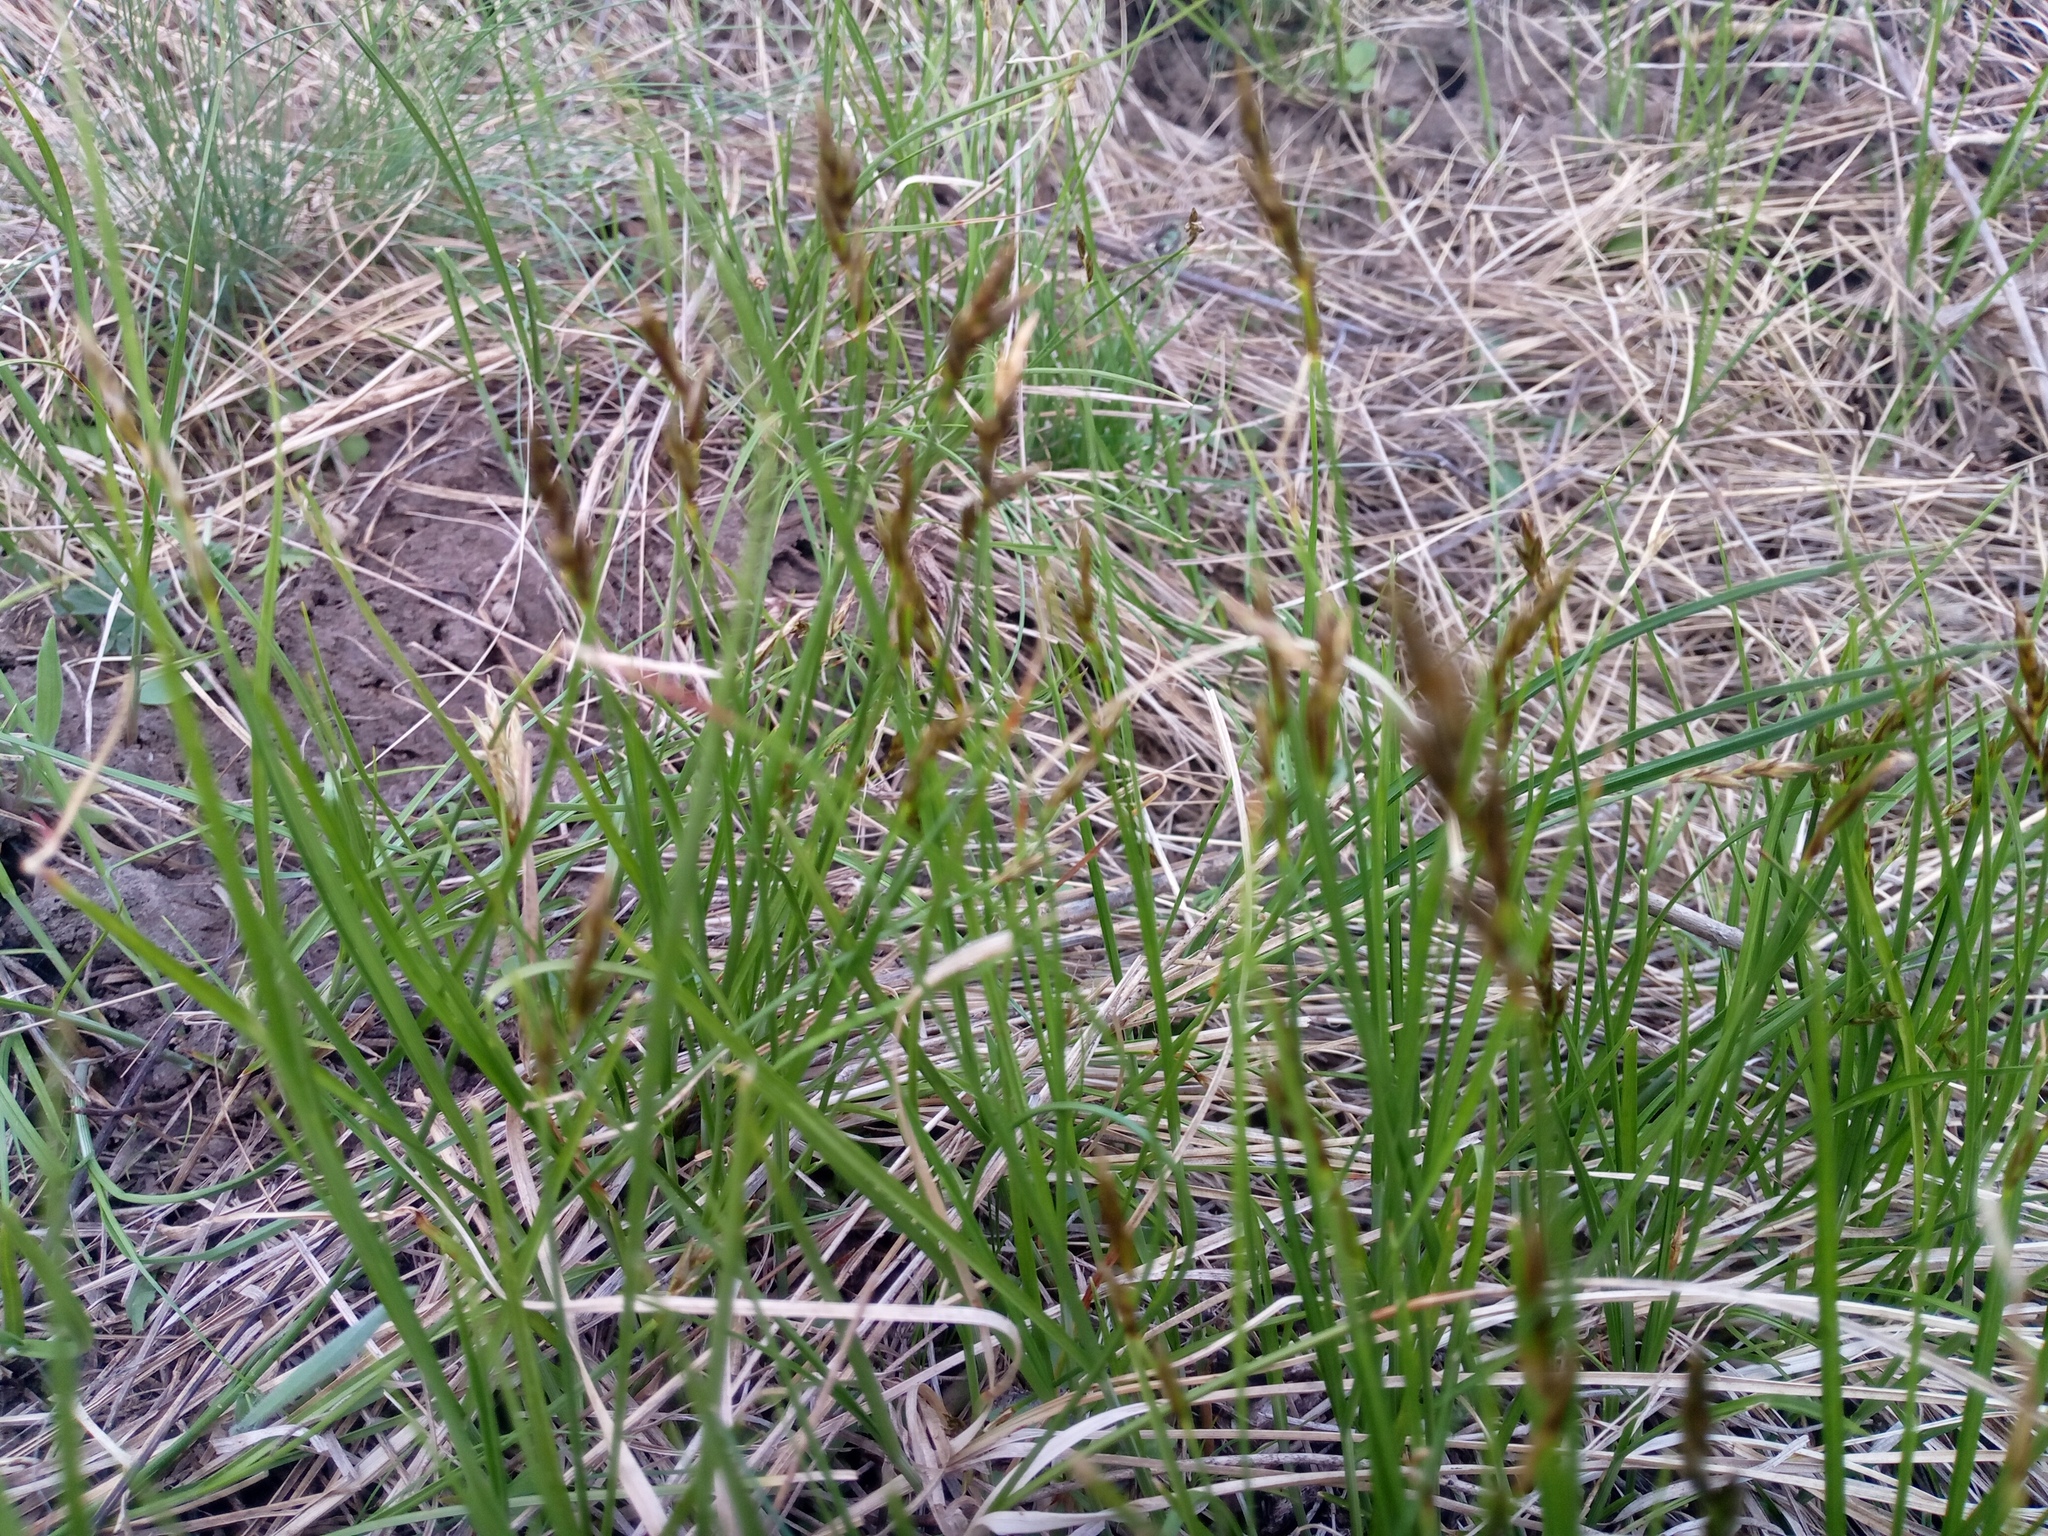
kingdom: Plantae
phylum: Tracheophyta
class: Liliopsida
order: Poales
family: Cyperaceae
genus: Carex
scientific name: Carex praecox
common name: Early sedge
